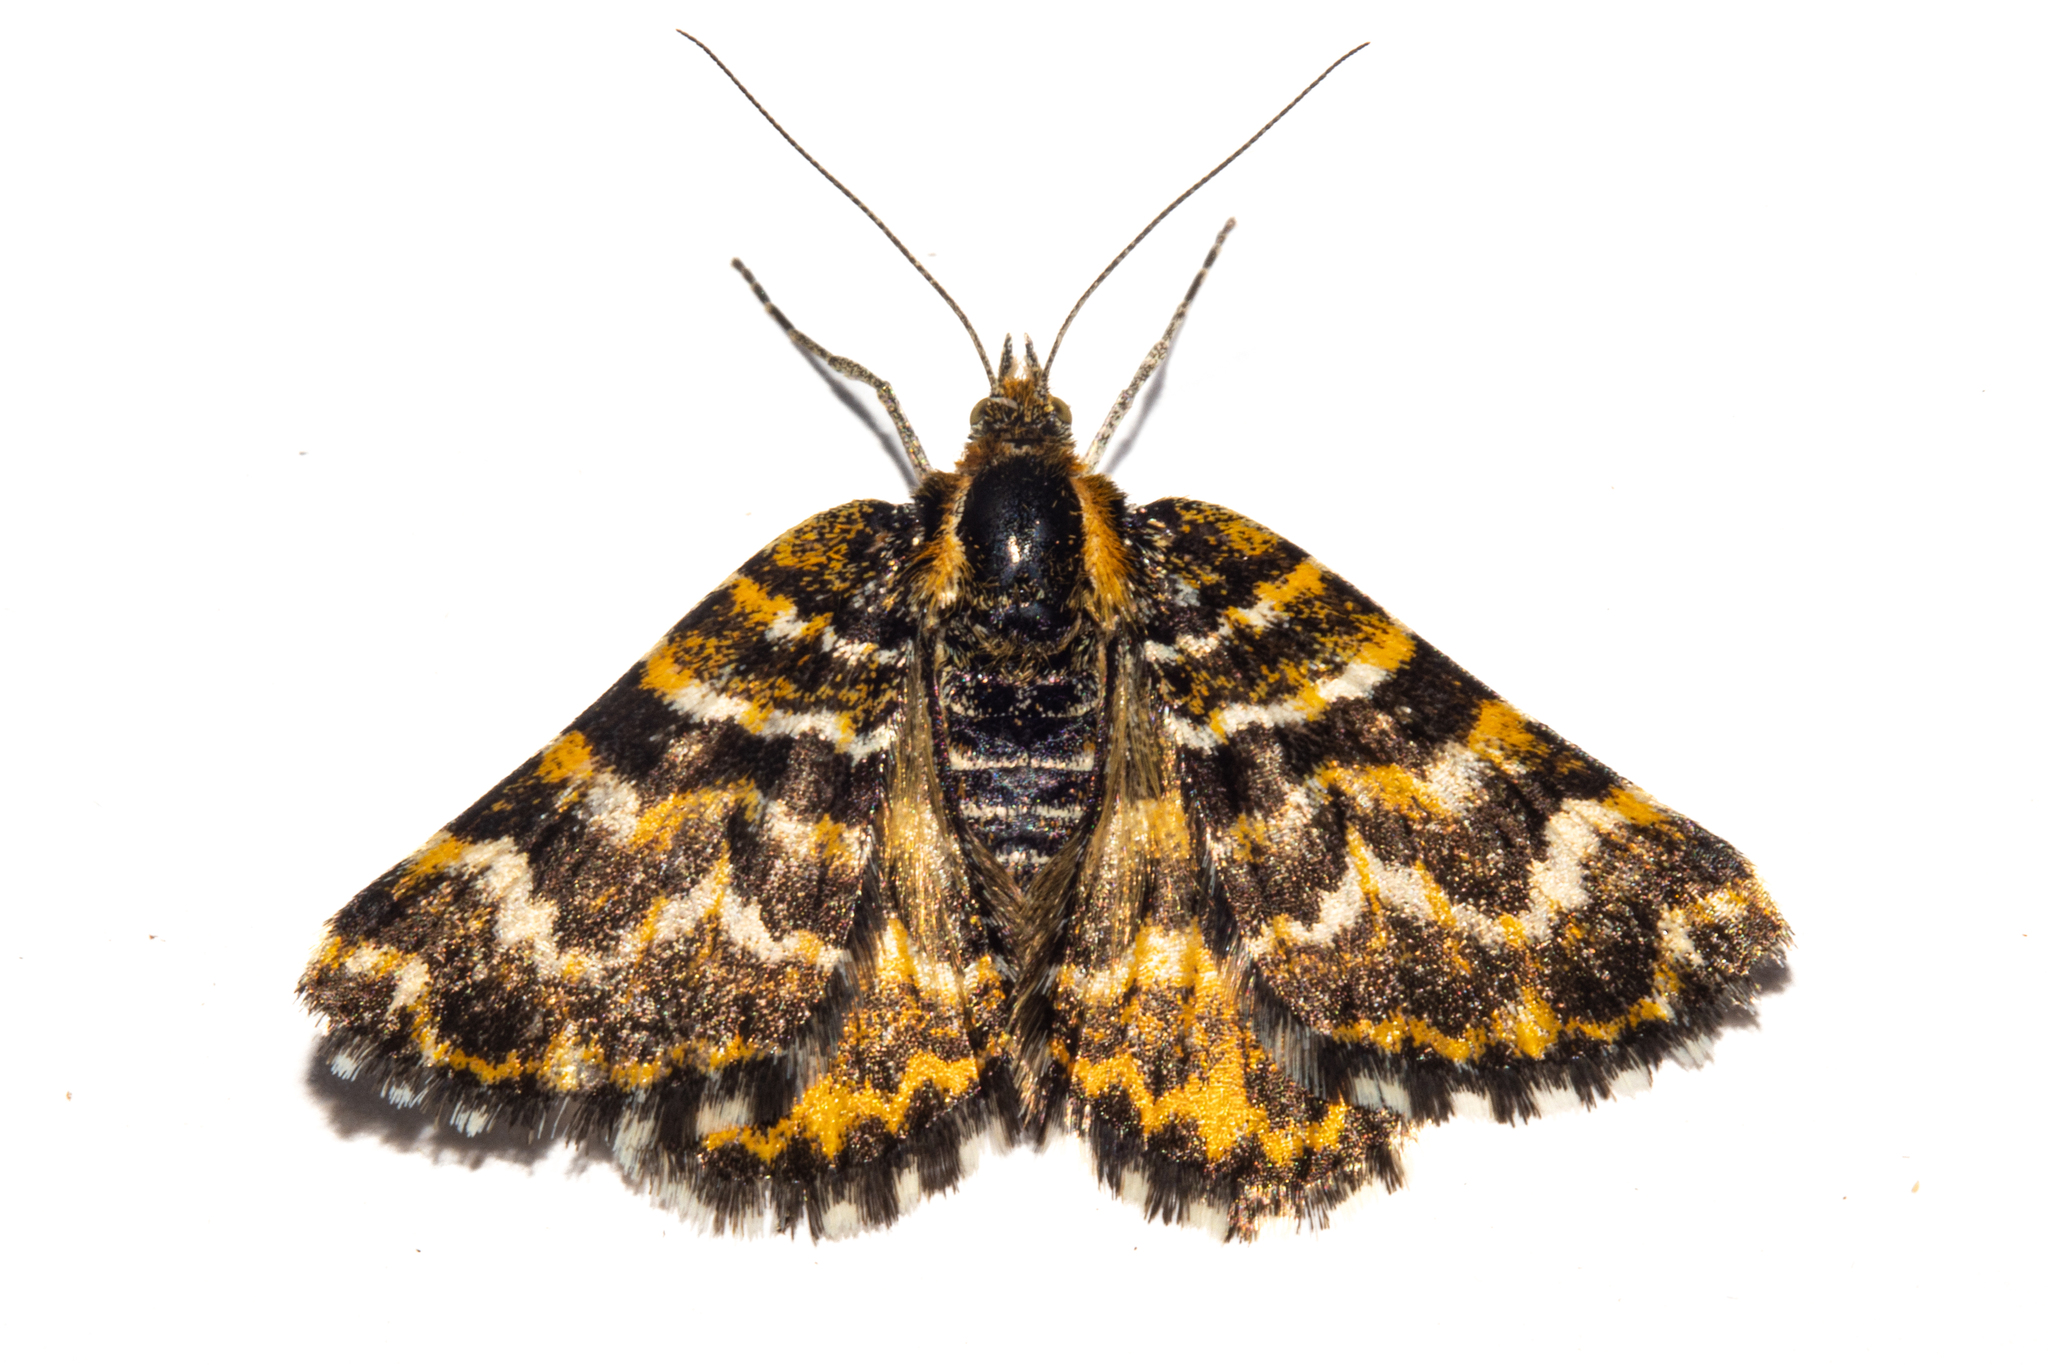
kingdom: Animalia
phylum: Arthropoda
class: Insecta
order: Lepidoptera
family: Geometridae
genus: Notoreas
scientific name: Notoreas
